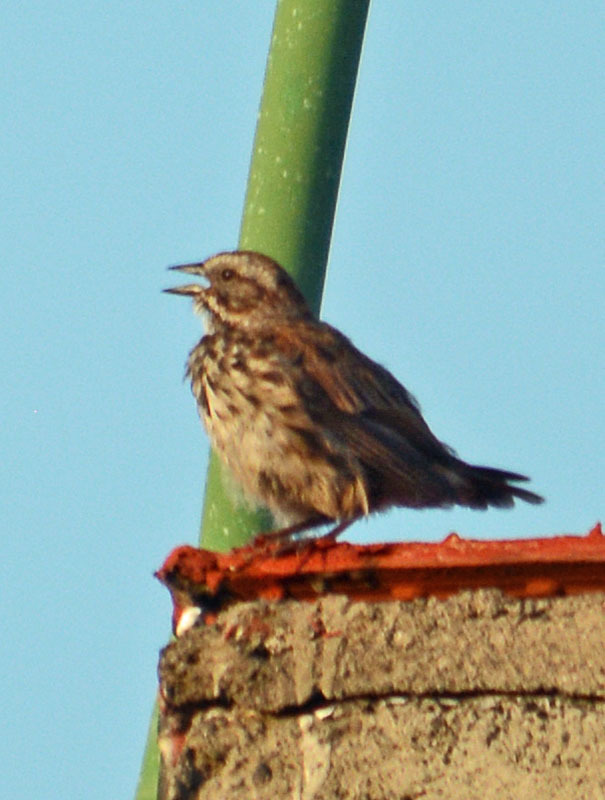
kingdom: Animalia
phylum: Chordata
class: Aves
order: Passeriformes
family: Passerellidae
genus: Melospiza
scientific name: Melospiza melodia
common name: Song sparrow
